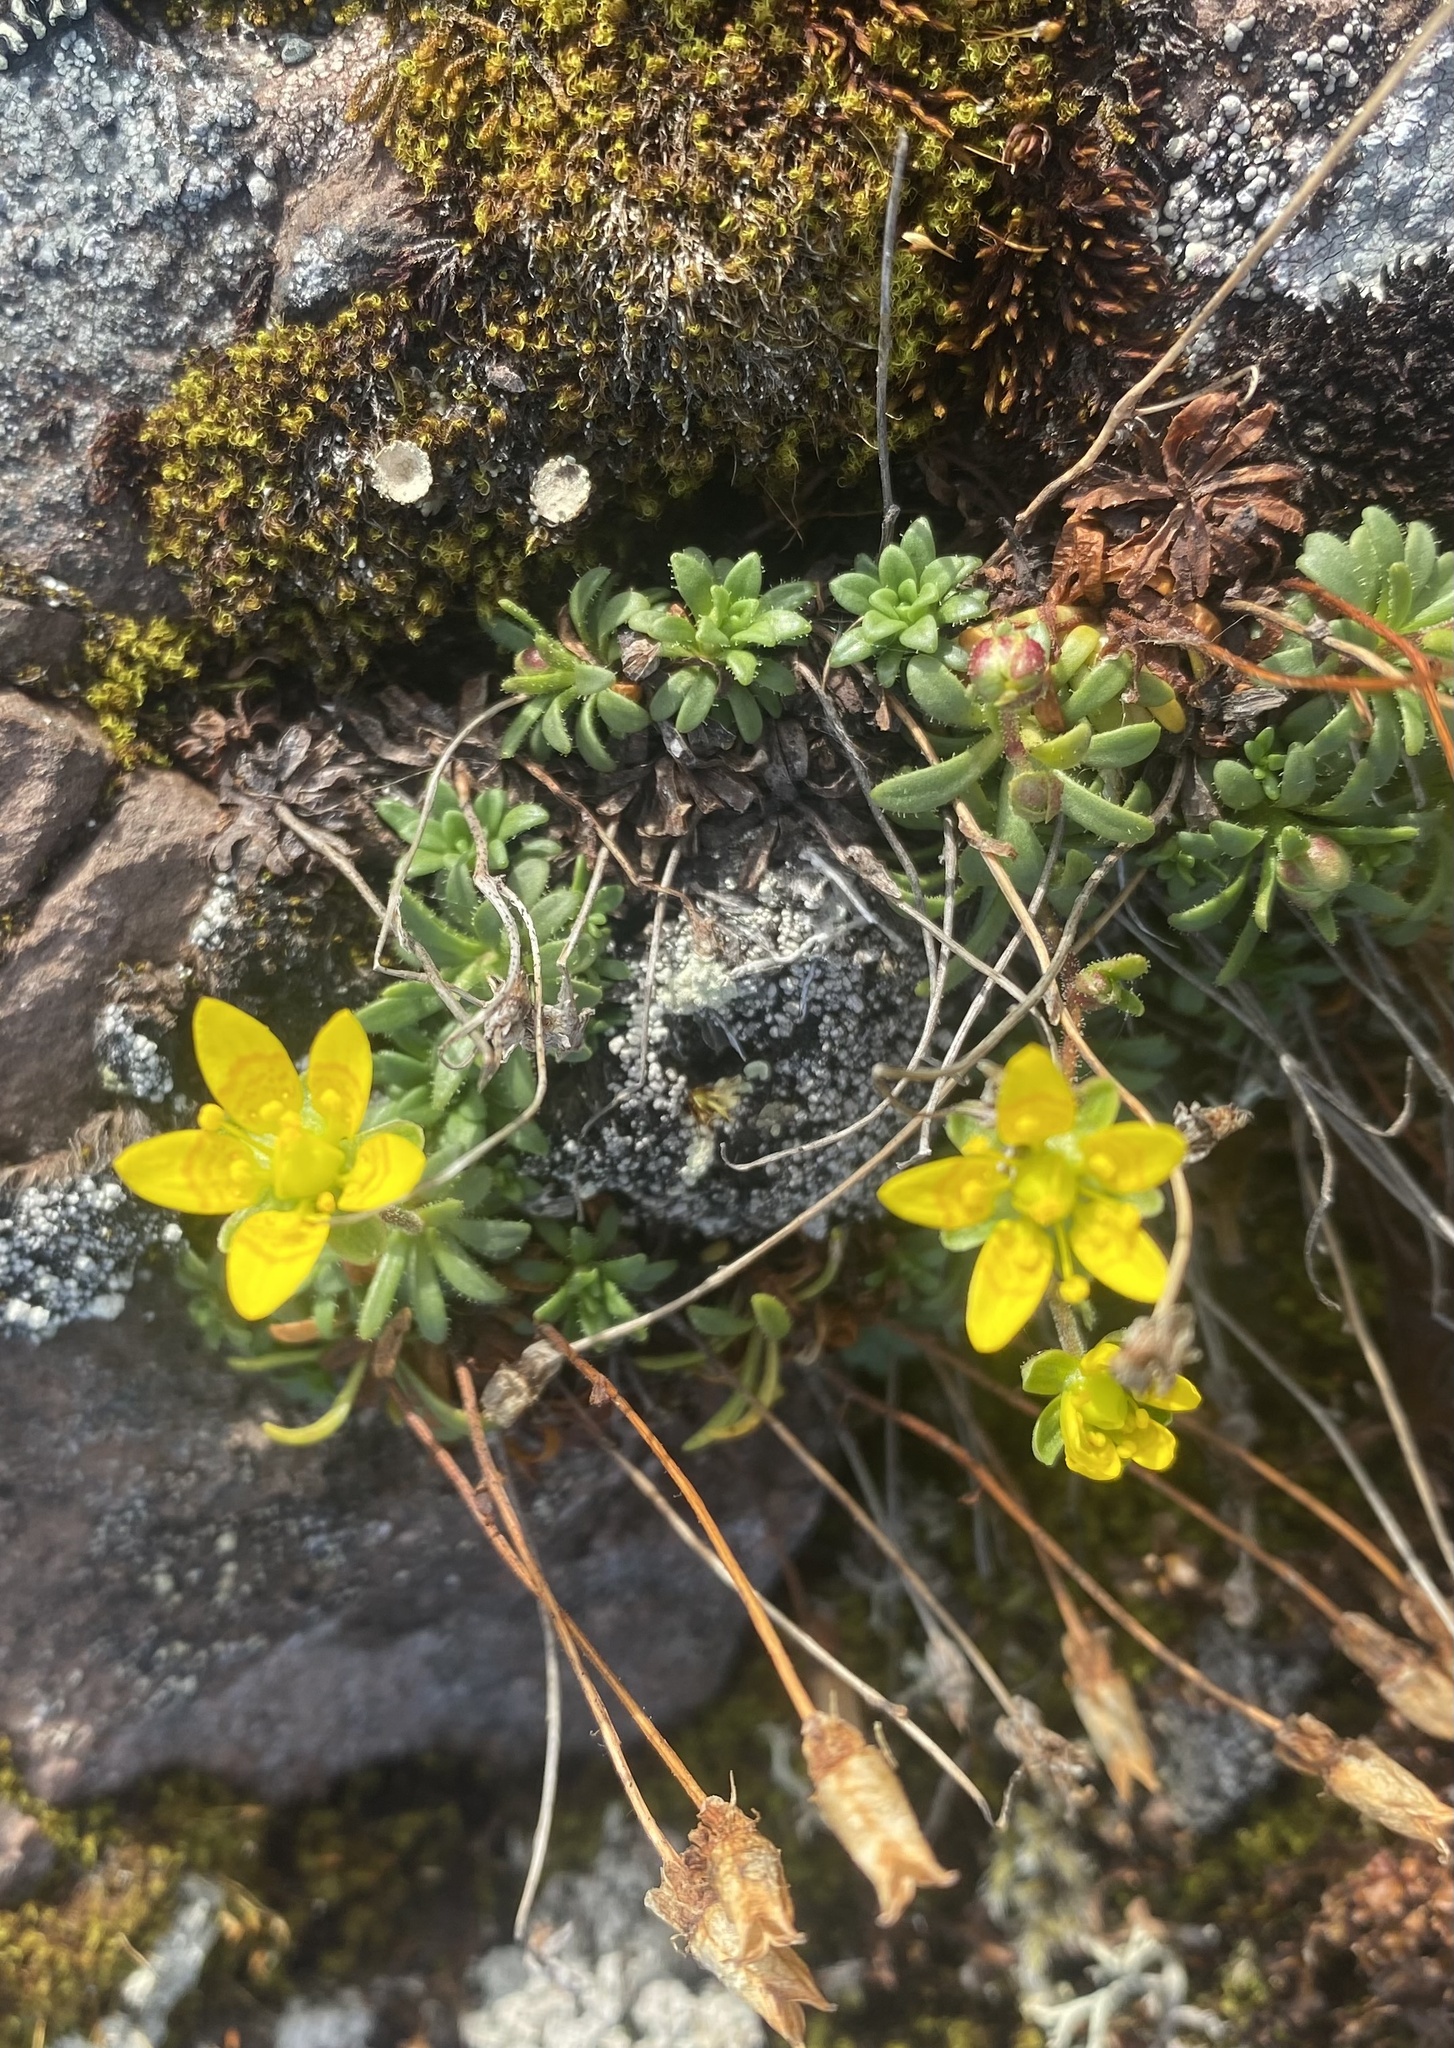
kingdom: Plantae
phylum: Tracheophyta
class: Magnoliopsida
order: Saxifragales
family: Saxifragaceae
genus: Saxifraga
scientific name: Saxifraga serpyllifolia
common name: Thyme-leaved saxifrage
